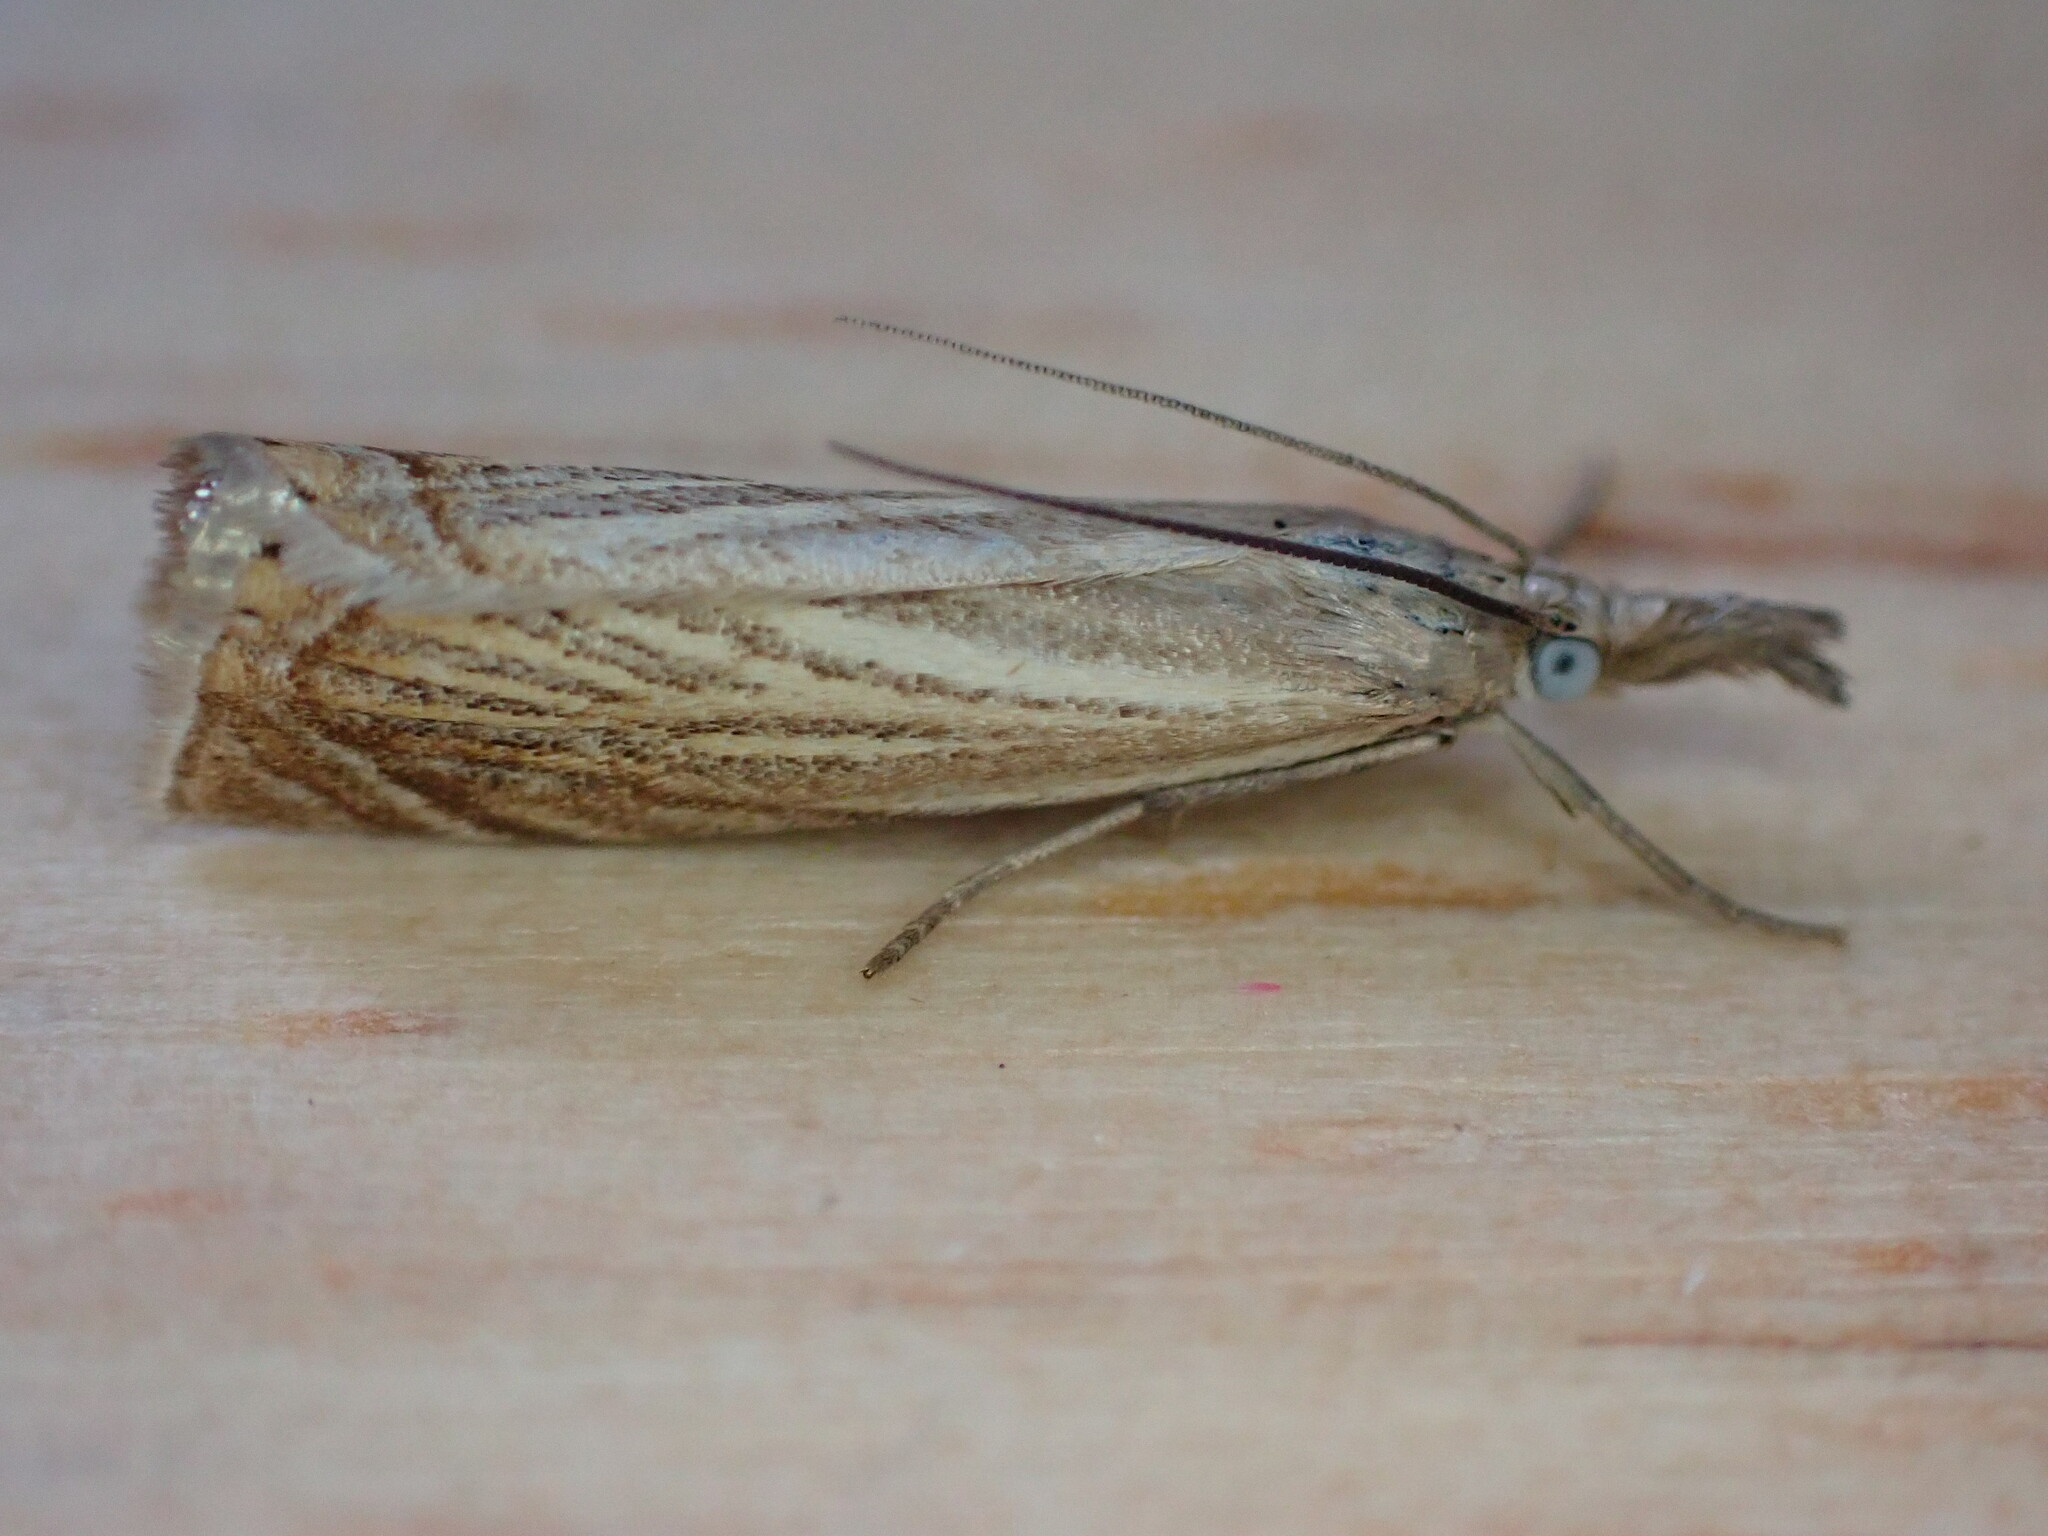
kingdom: Animalia
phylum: Arthropoda
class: Insecta
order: Lepidoptera
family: Crambidae
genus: Chrysoteuchia
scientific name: Chrysoteuchia culmella
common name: Garden grass-veneer
